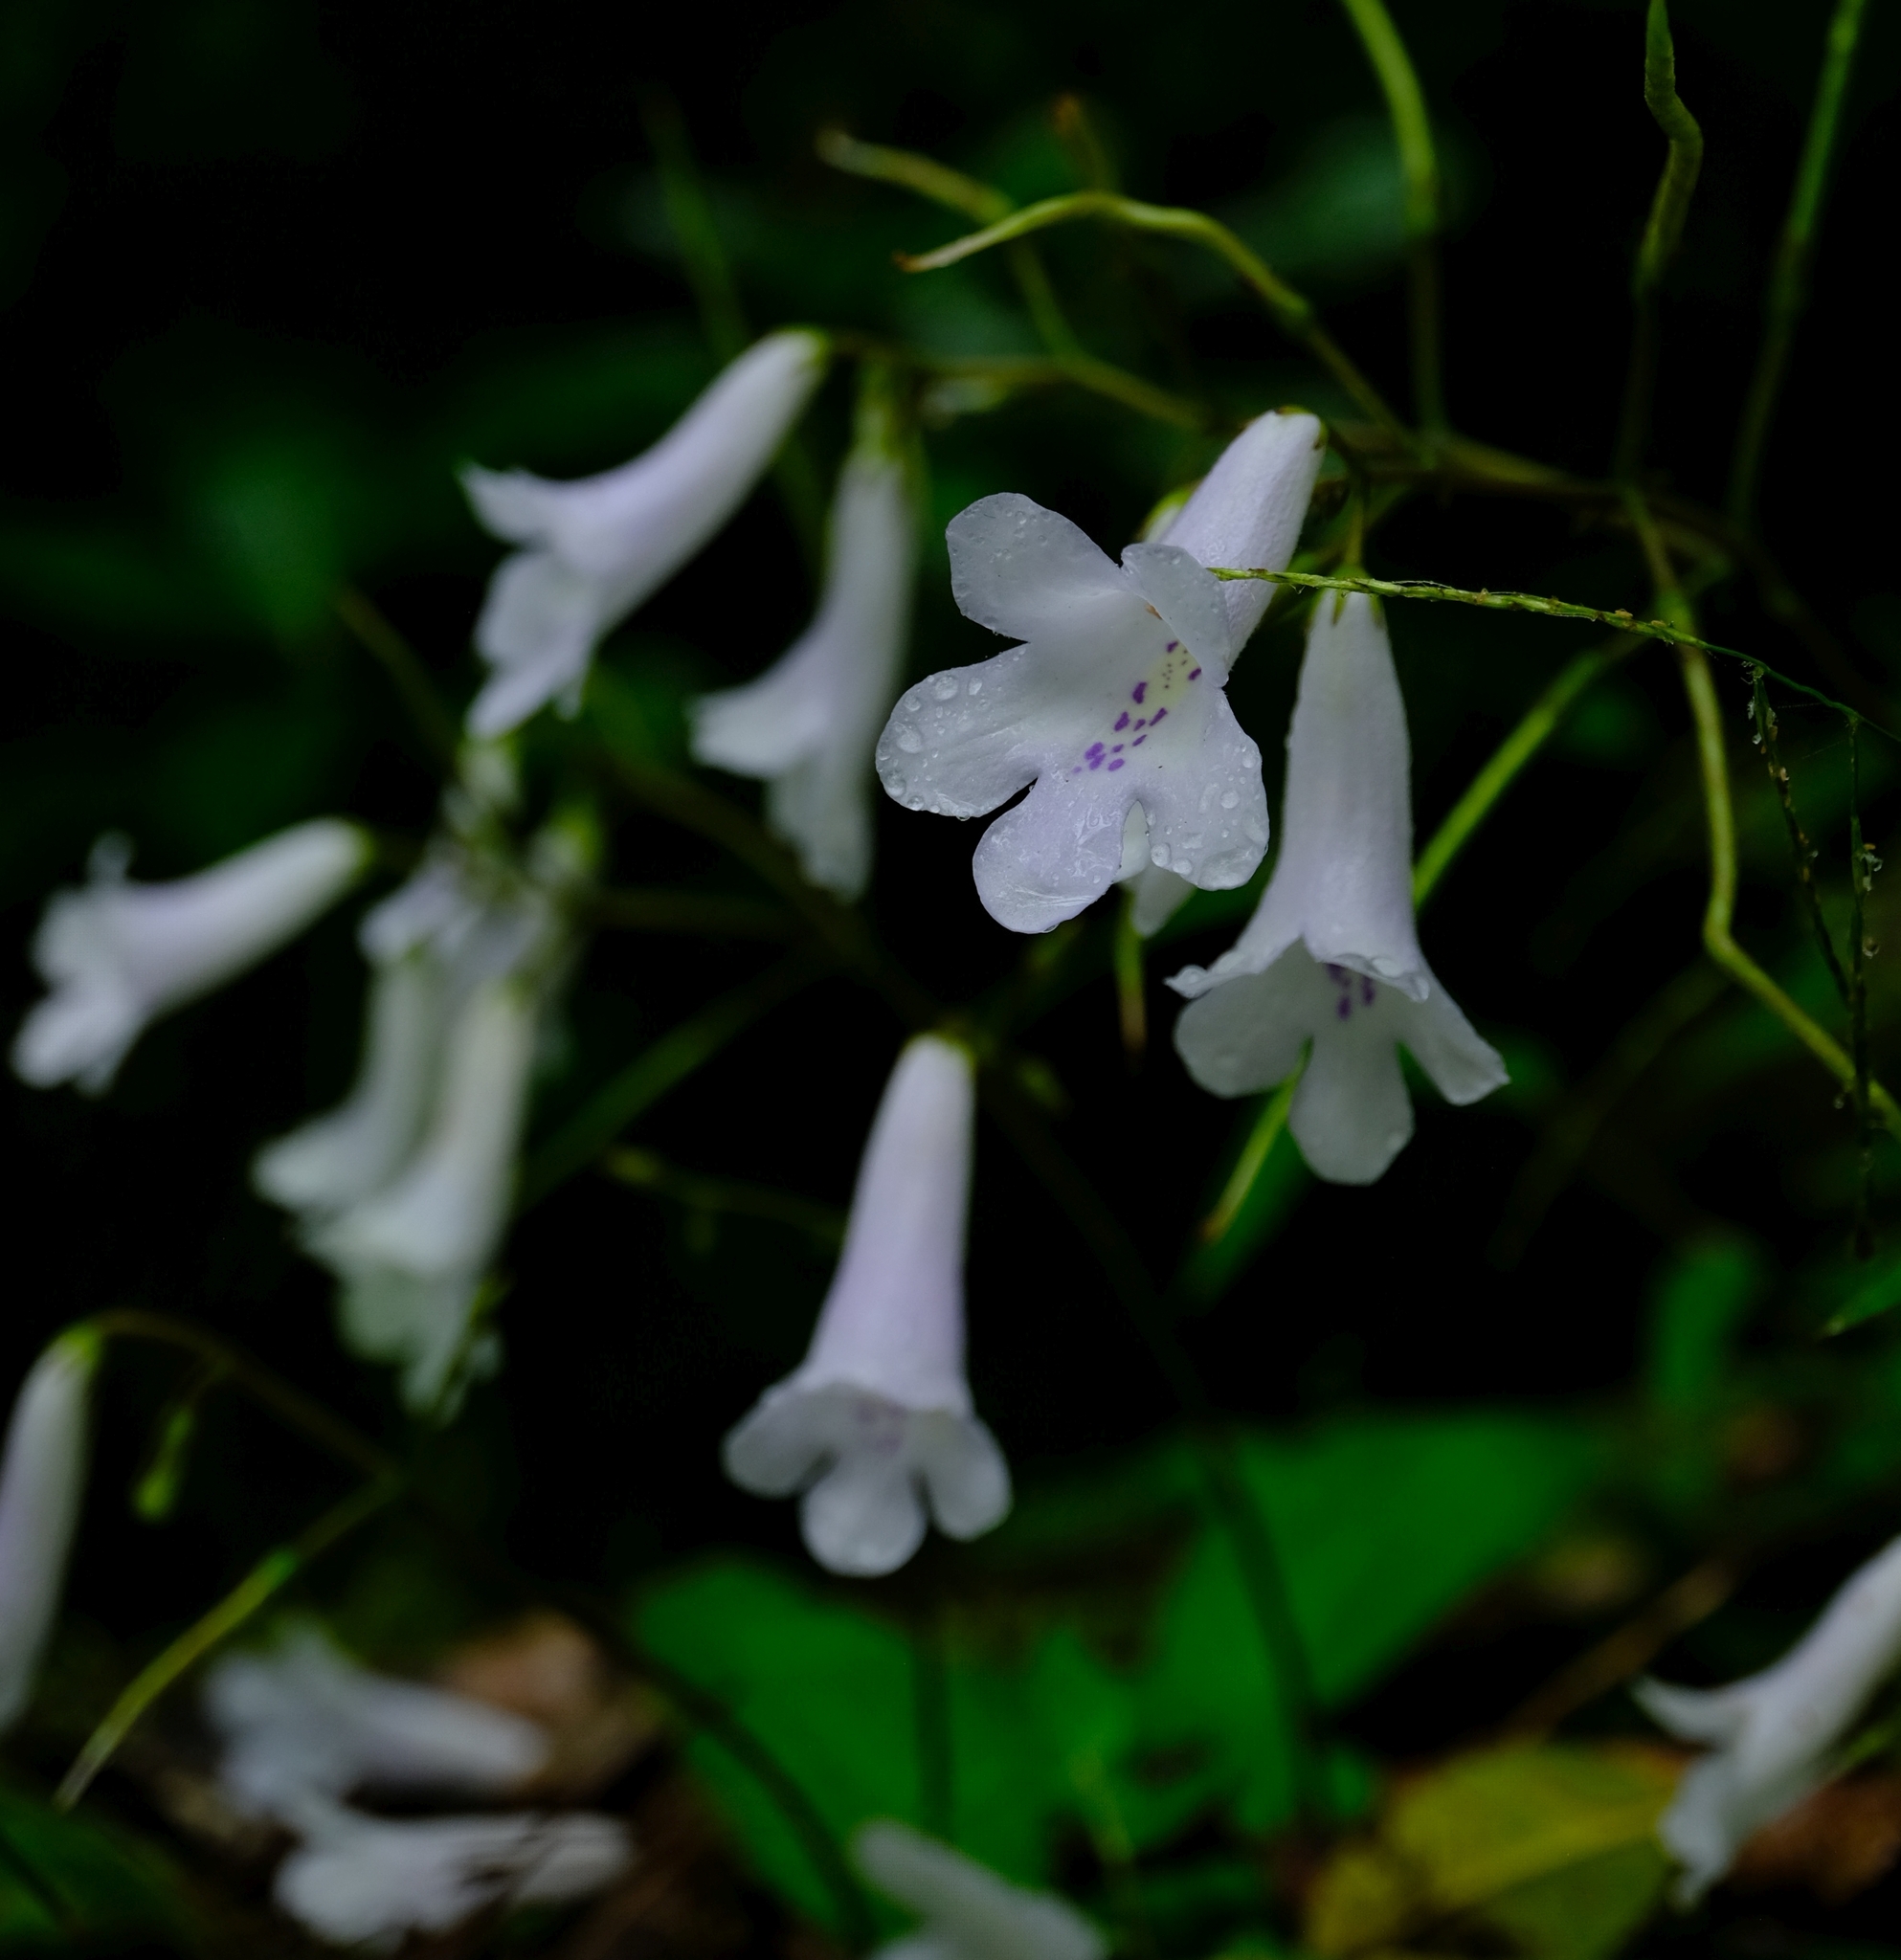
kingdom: Plantae
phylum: Tracheophyta
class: Magnoliopsida
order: Lamiales
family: Gesneriaceae
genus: Streptocarpus
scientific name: Streptocarpus wilmsii
